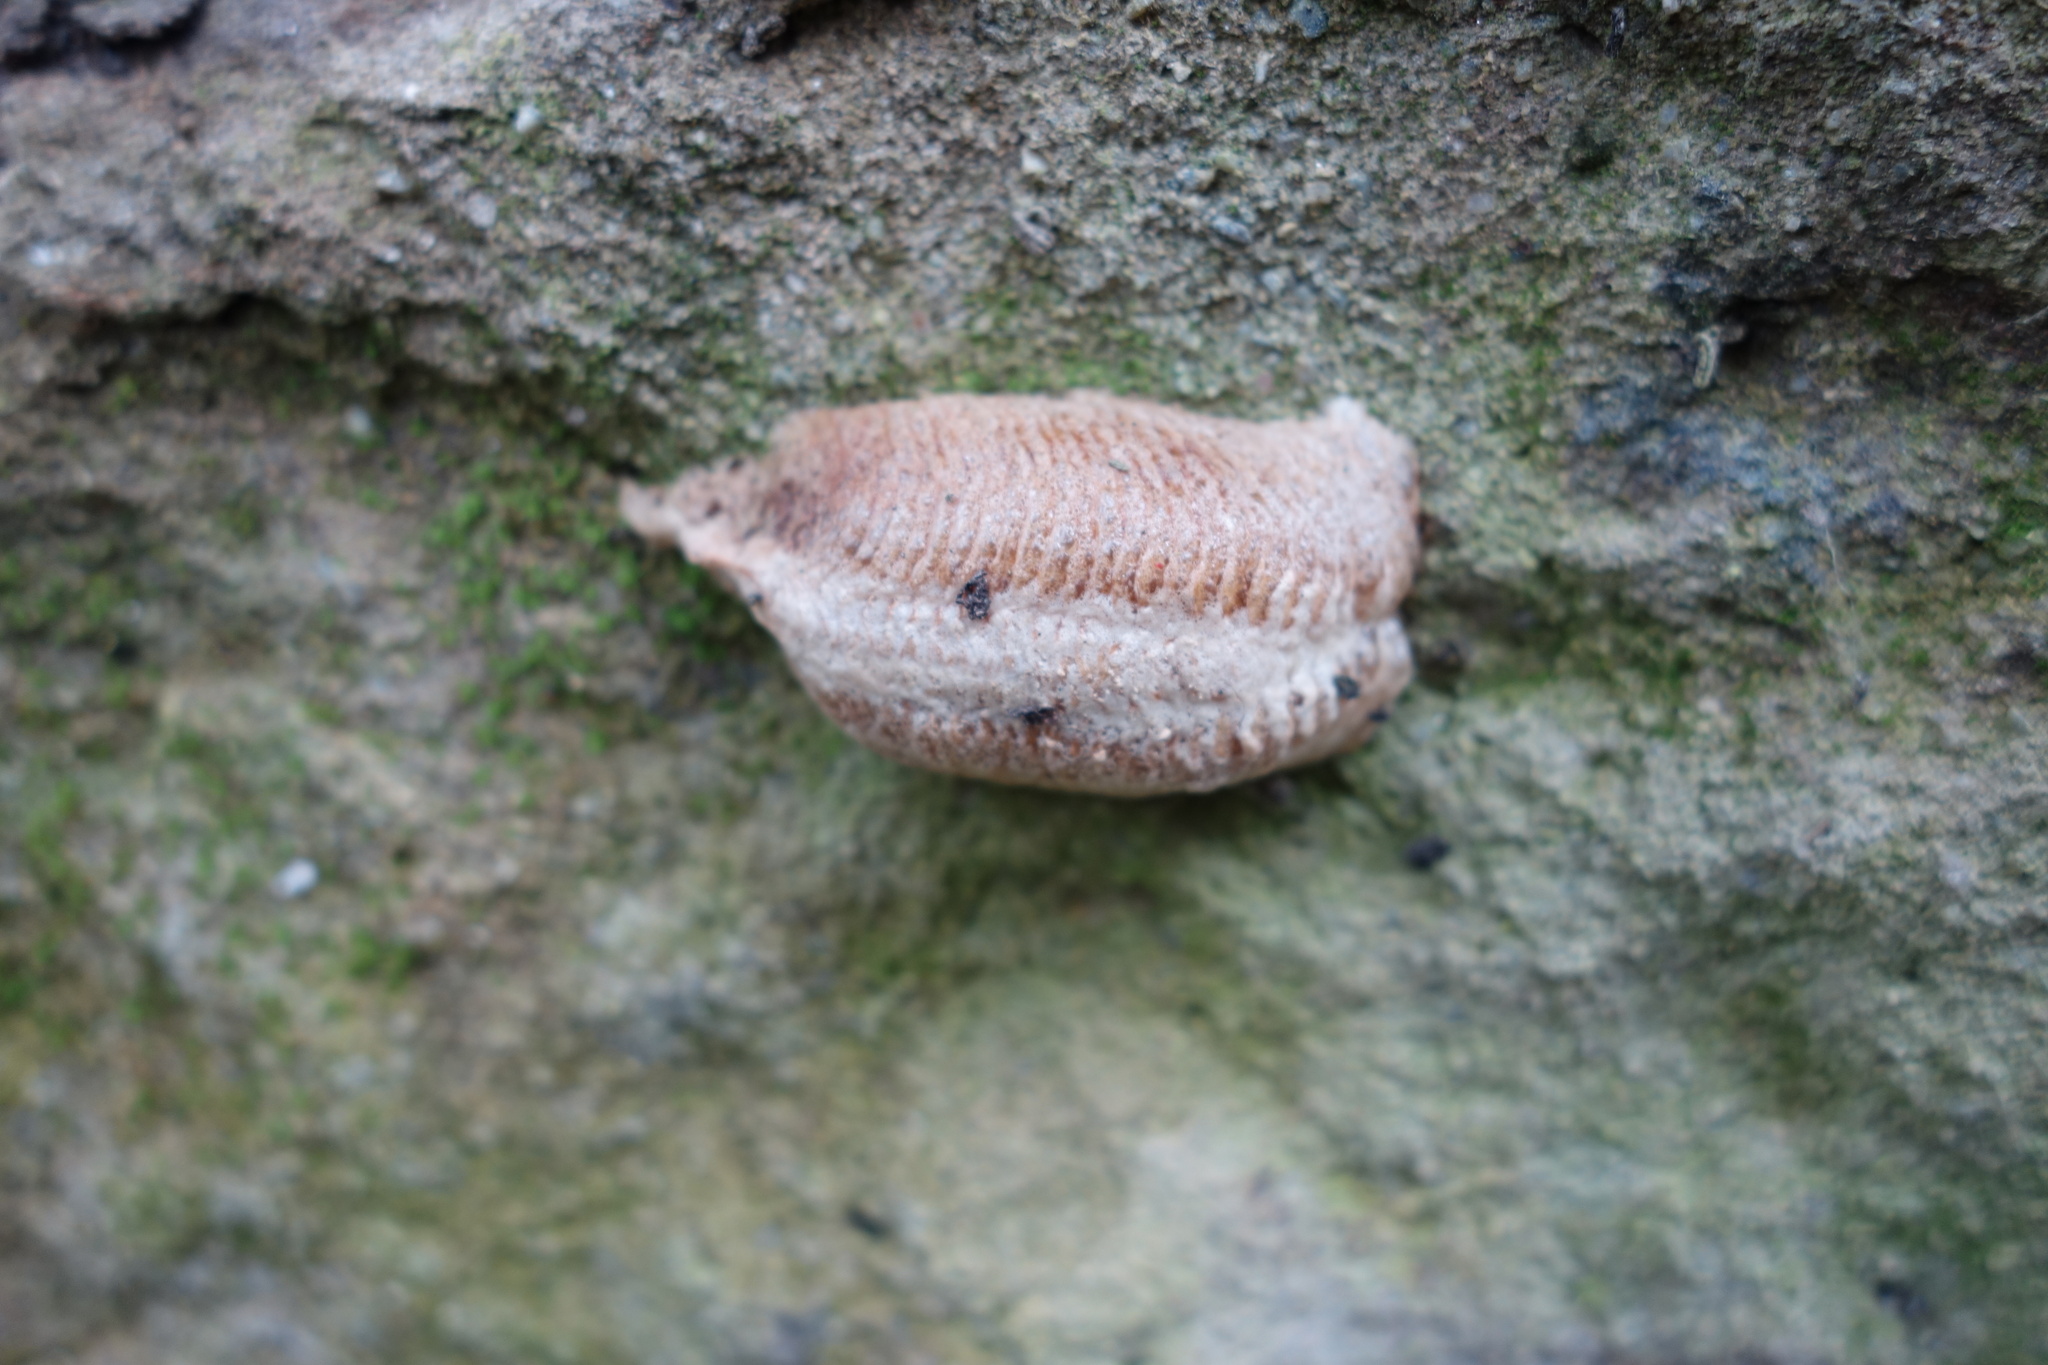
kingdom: Animalia
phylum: Arthropoda
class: Insecta
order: Mantodea
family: Mantidae
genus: Mantis
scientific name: Mantis religiosa
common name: Praying mantis
